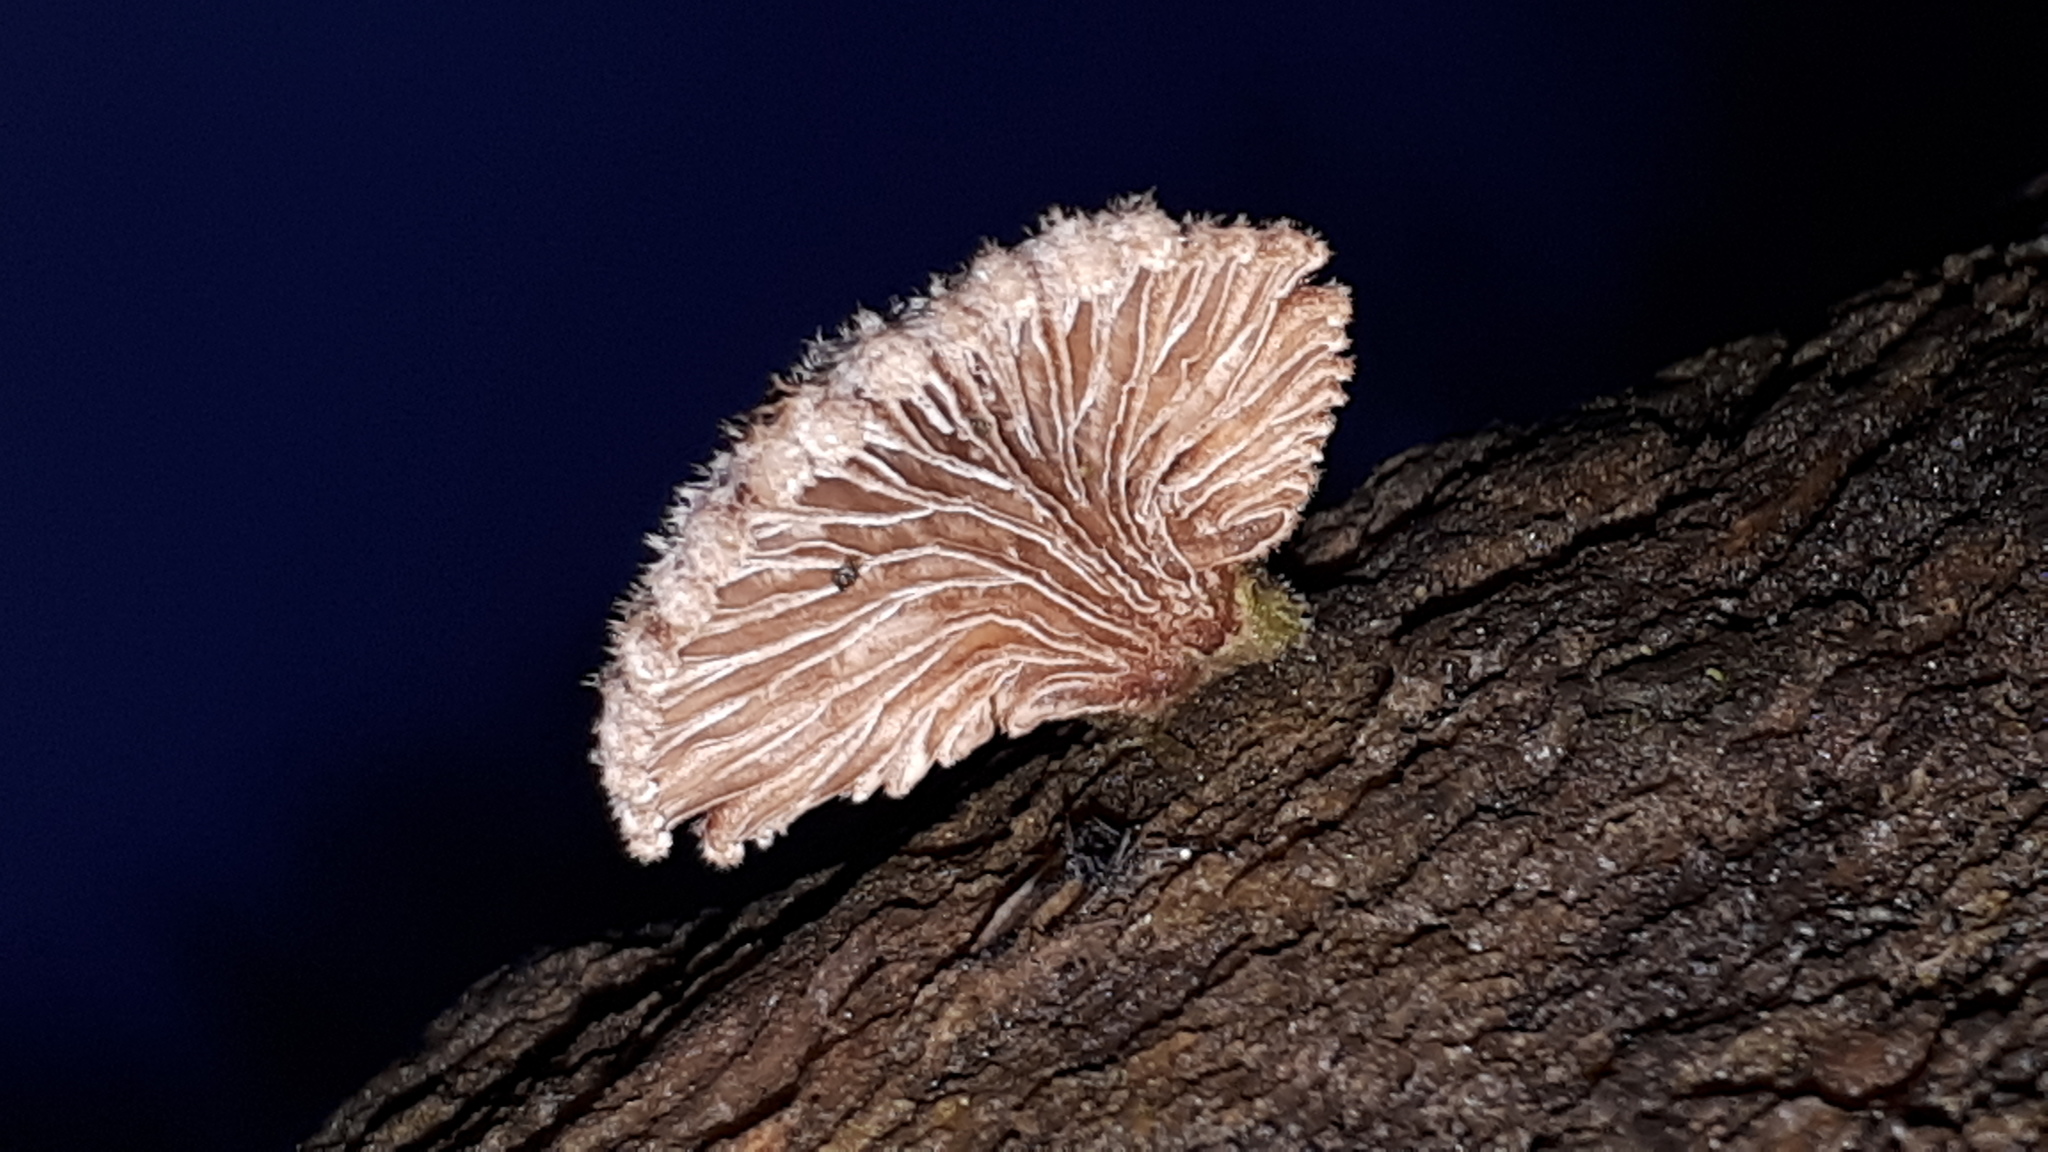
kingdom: Fungi
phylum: Basidiomycota
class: Agaricomycetes
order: Agaricales
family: Schizophyllaceae
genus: Schizophyllum
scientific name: Schizophyllum commune
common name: Common porecrust
